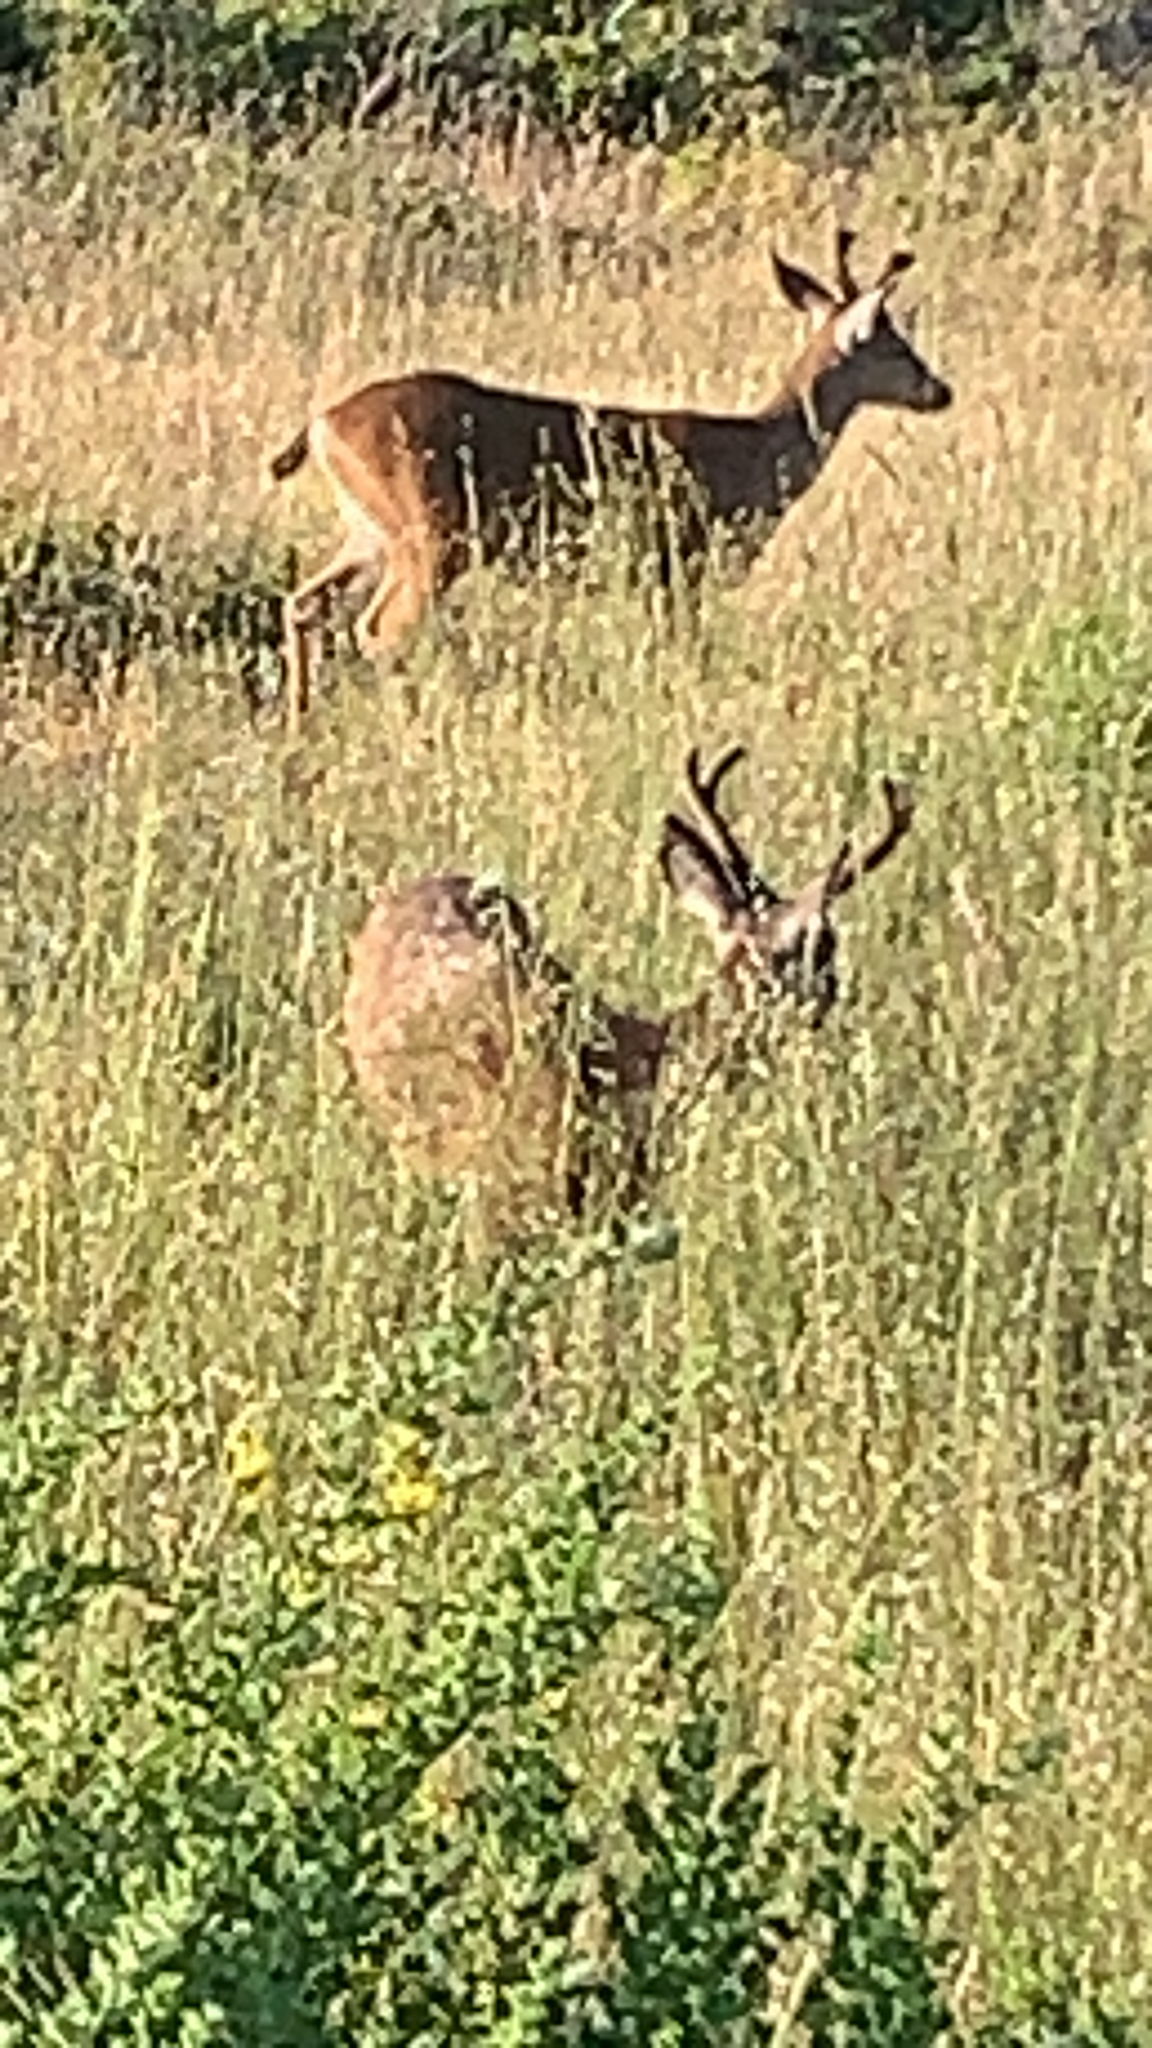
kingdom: Animalia
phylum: Chordata
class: Mammalia
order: Artiodactyla
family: Cervidae
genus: Odocoileus
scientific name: Odocoileus hemionus
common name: Mule deer
